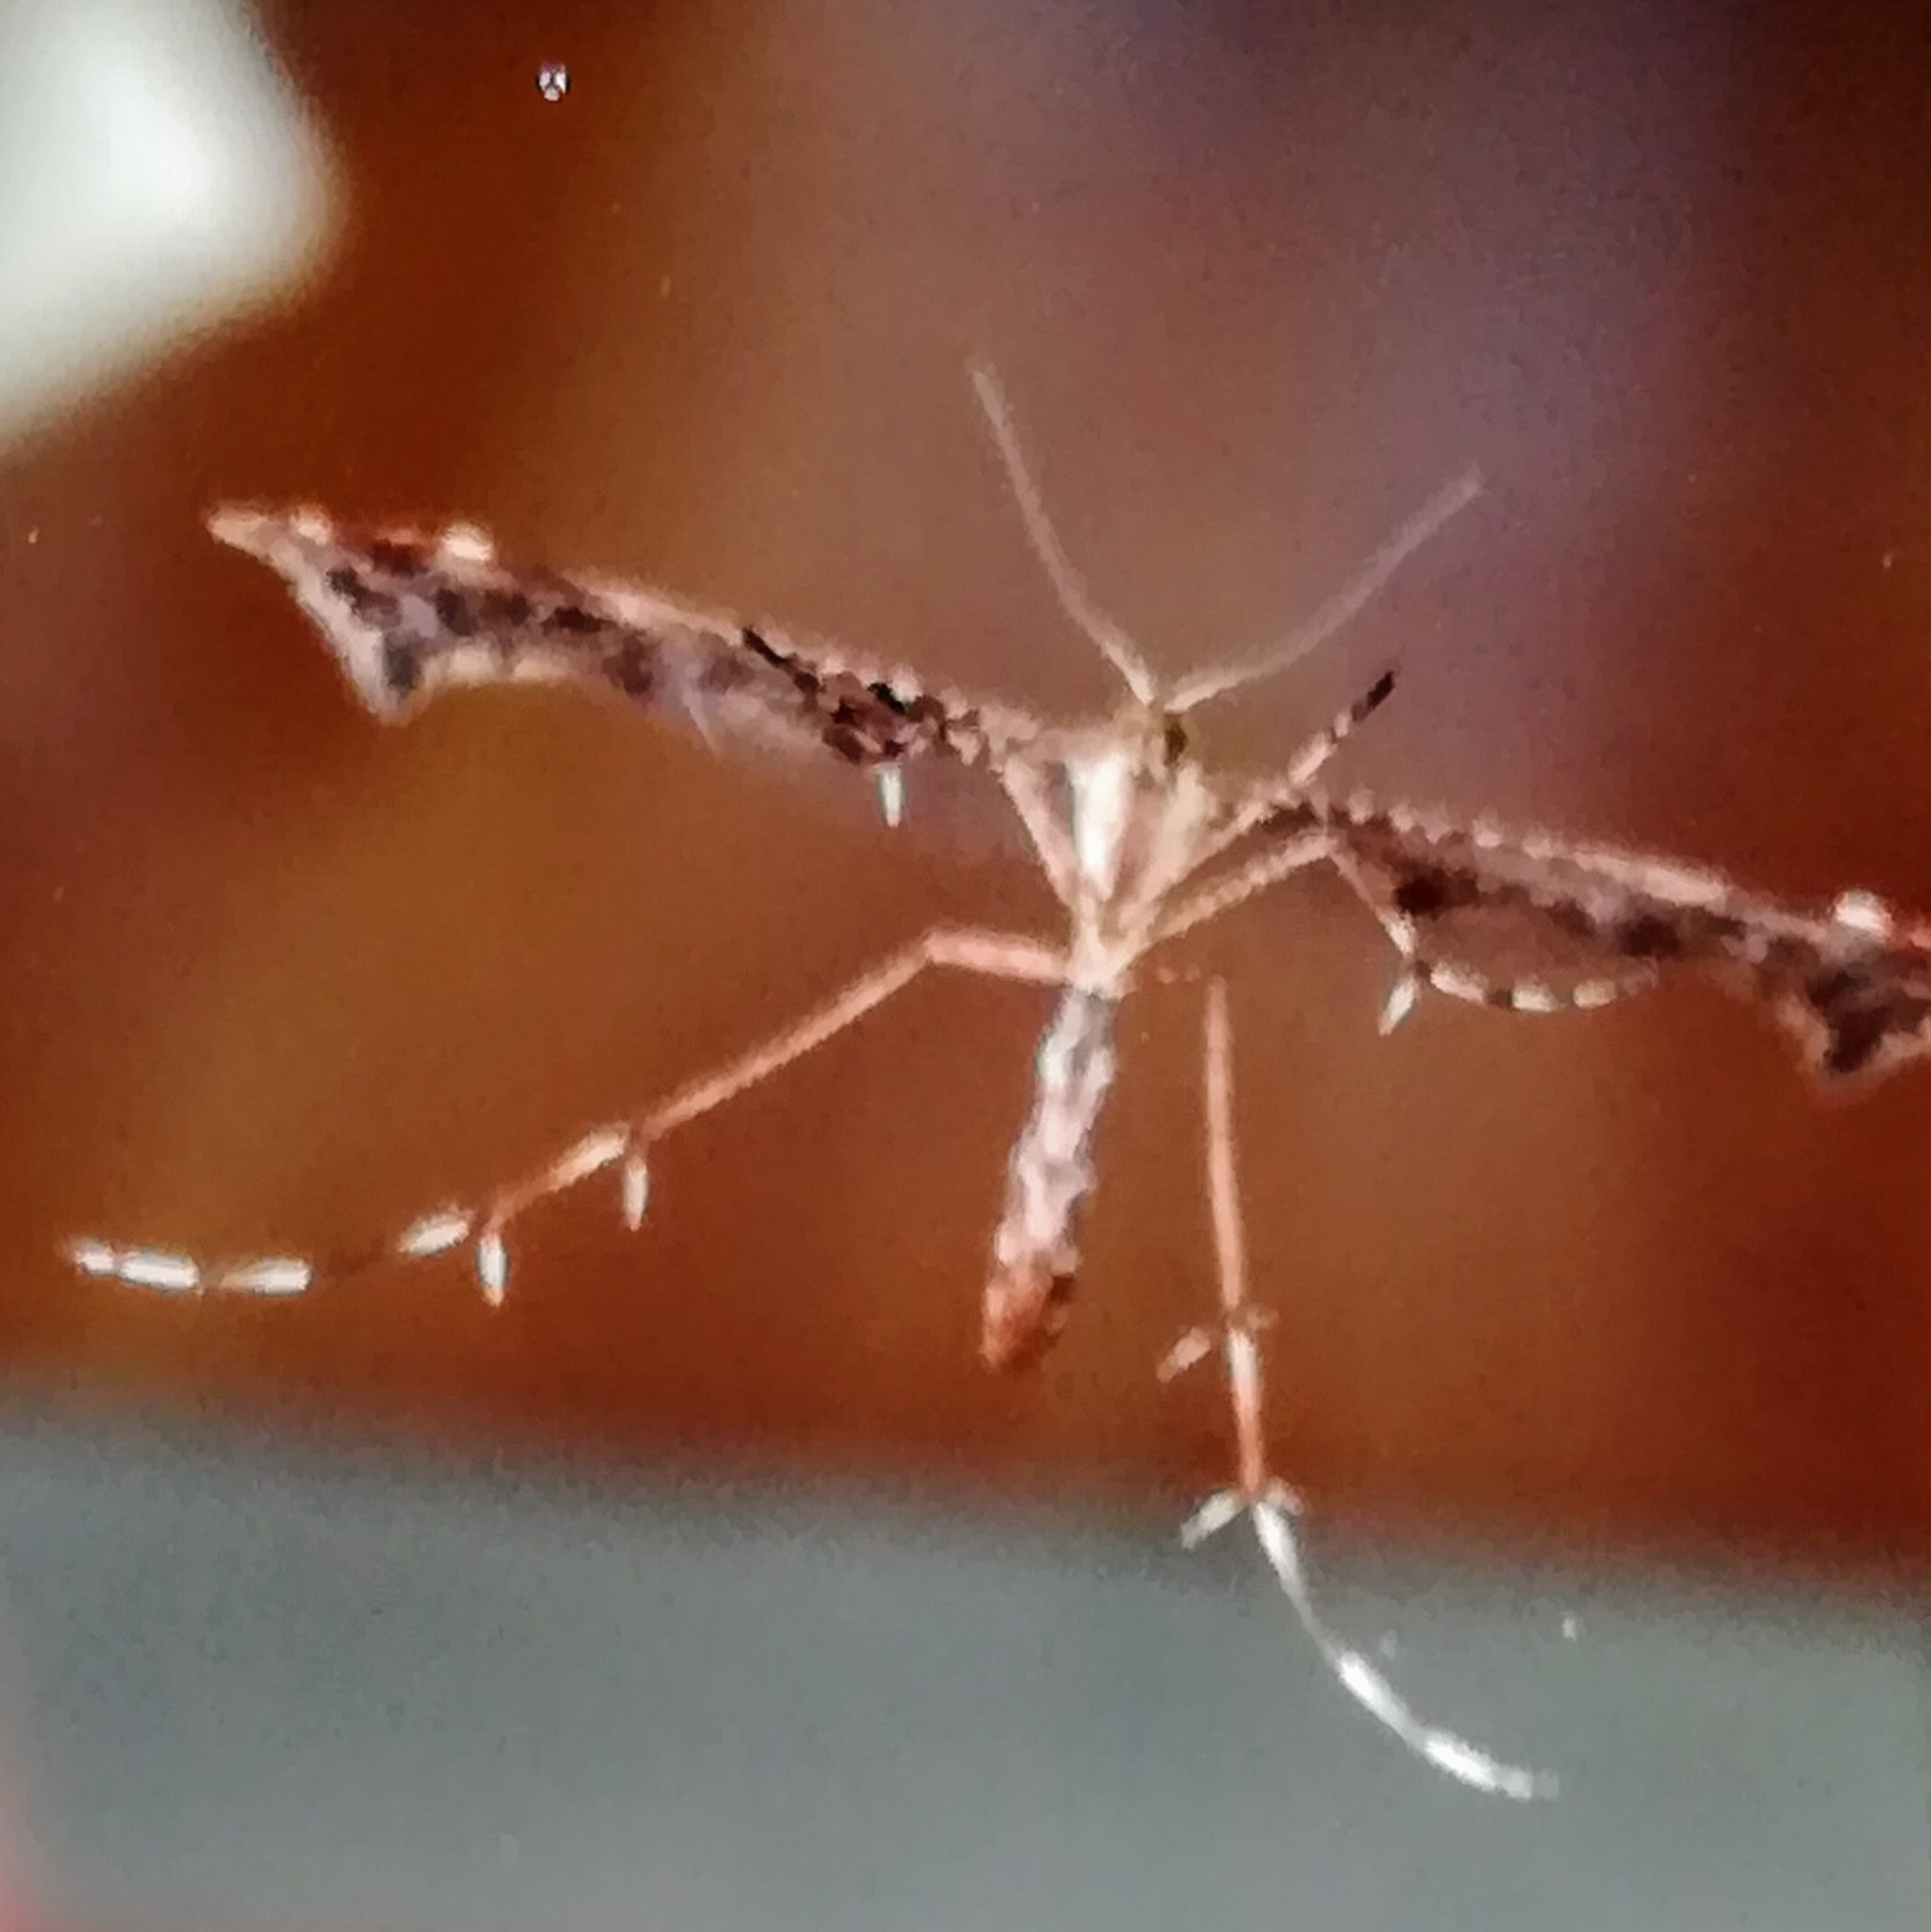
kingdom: Animalia
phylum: Arthropoda
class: Insecta
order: Lepidoptera
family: Pterophoridae
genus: Amblyptilia
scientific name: Amblyptilia acanthadactyla
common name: Beautiful plume
